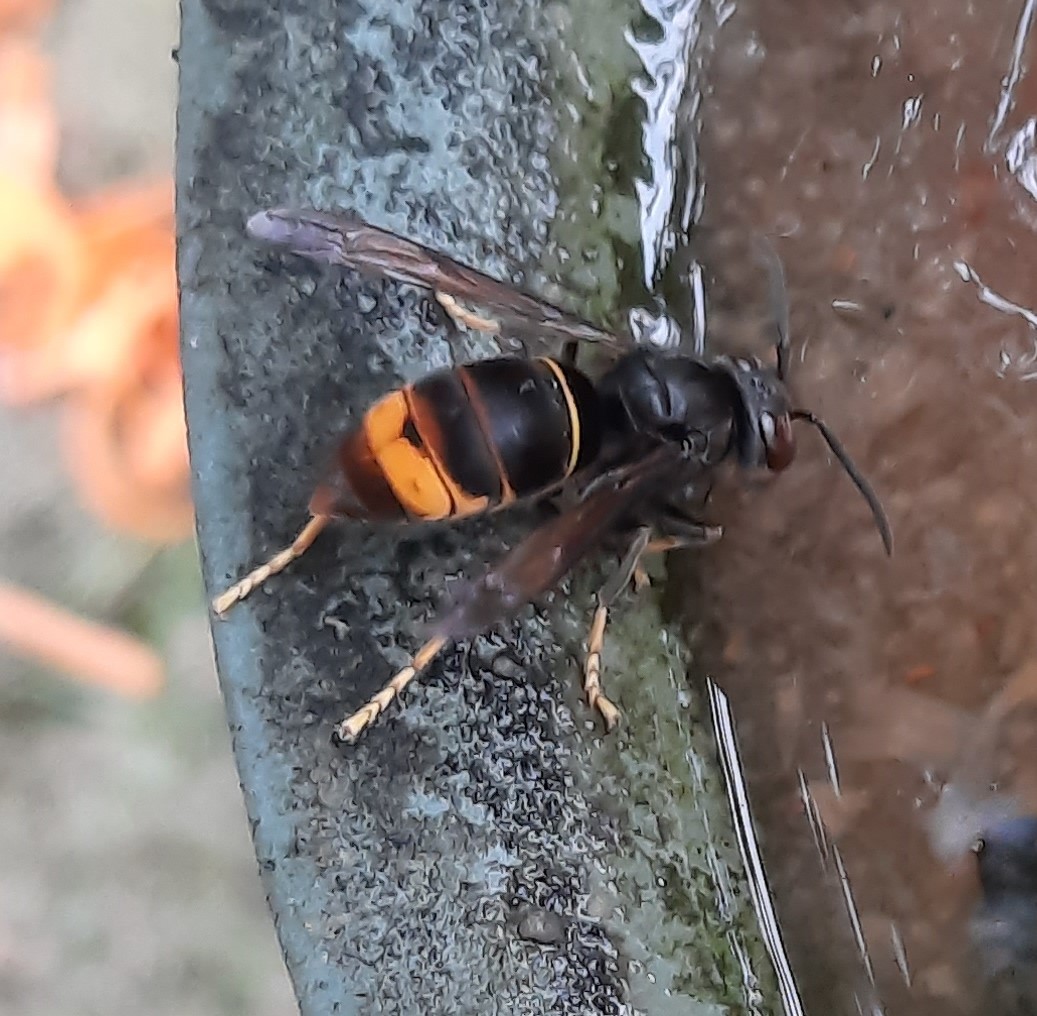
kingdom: Animalia
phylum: Arthropoda
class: Insecta
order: Hymenoptera
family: Vespidae
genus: Vespa
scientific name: Vespa velutina
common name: Asian hornet
